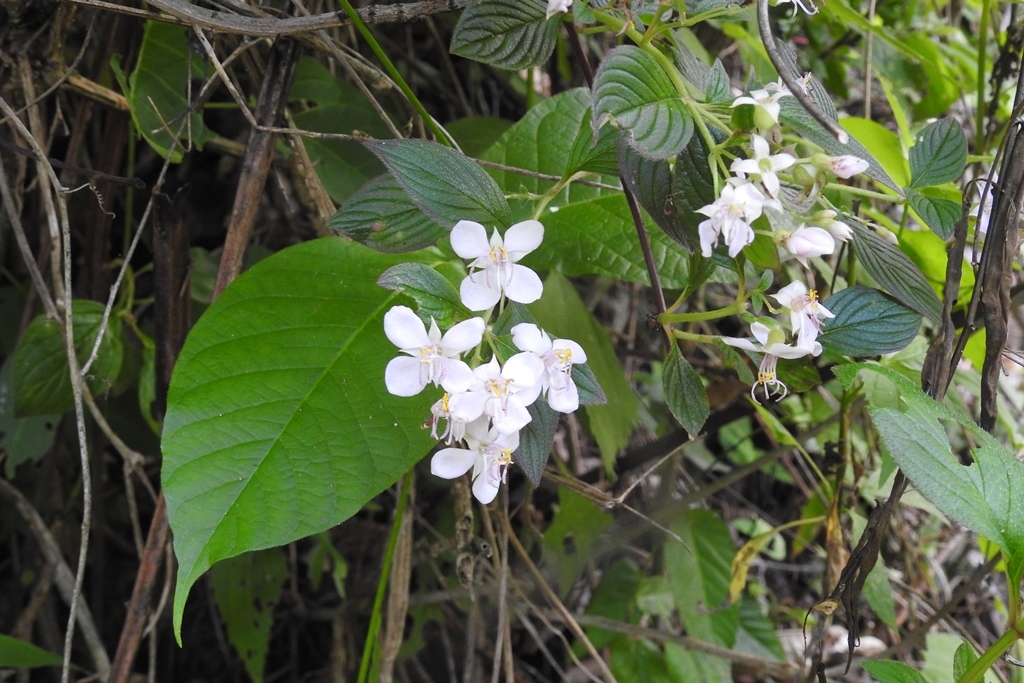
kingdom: Plantae
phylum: Tracheophyta
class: Magnoliopsida
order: Myrtales
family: Melastomataceae
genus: Heterocentron
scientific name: Heterocentron subtriplinervium
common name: Pearl flower
